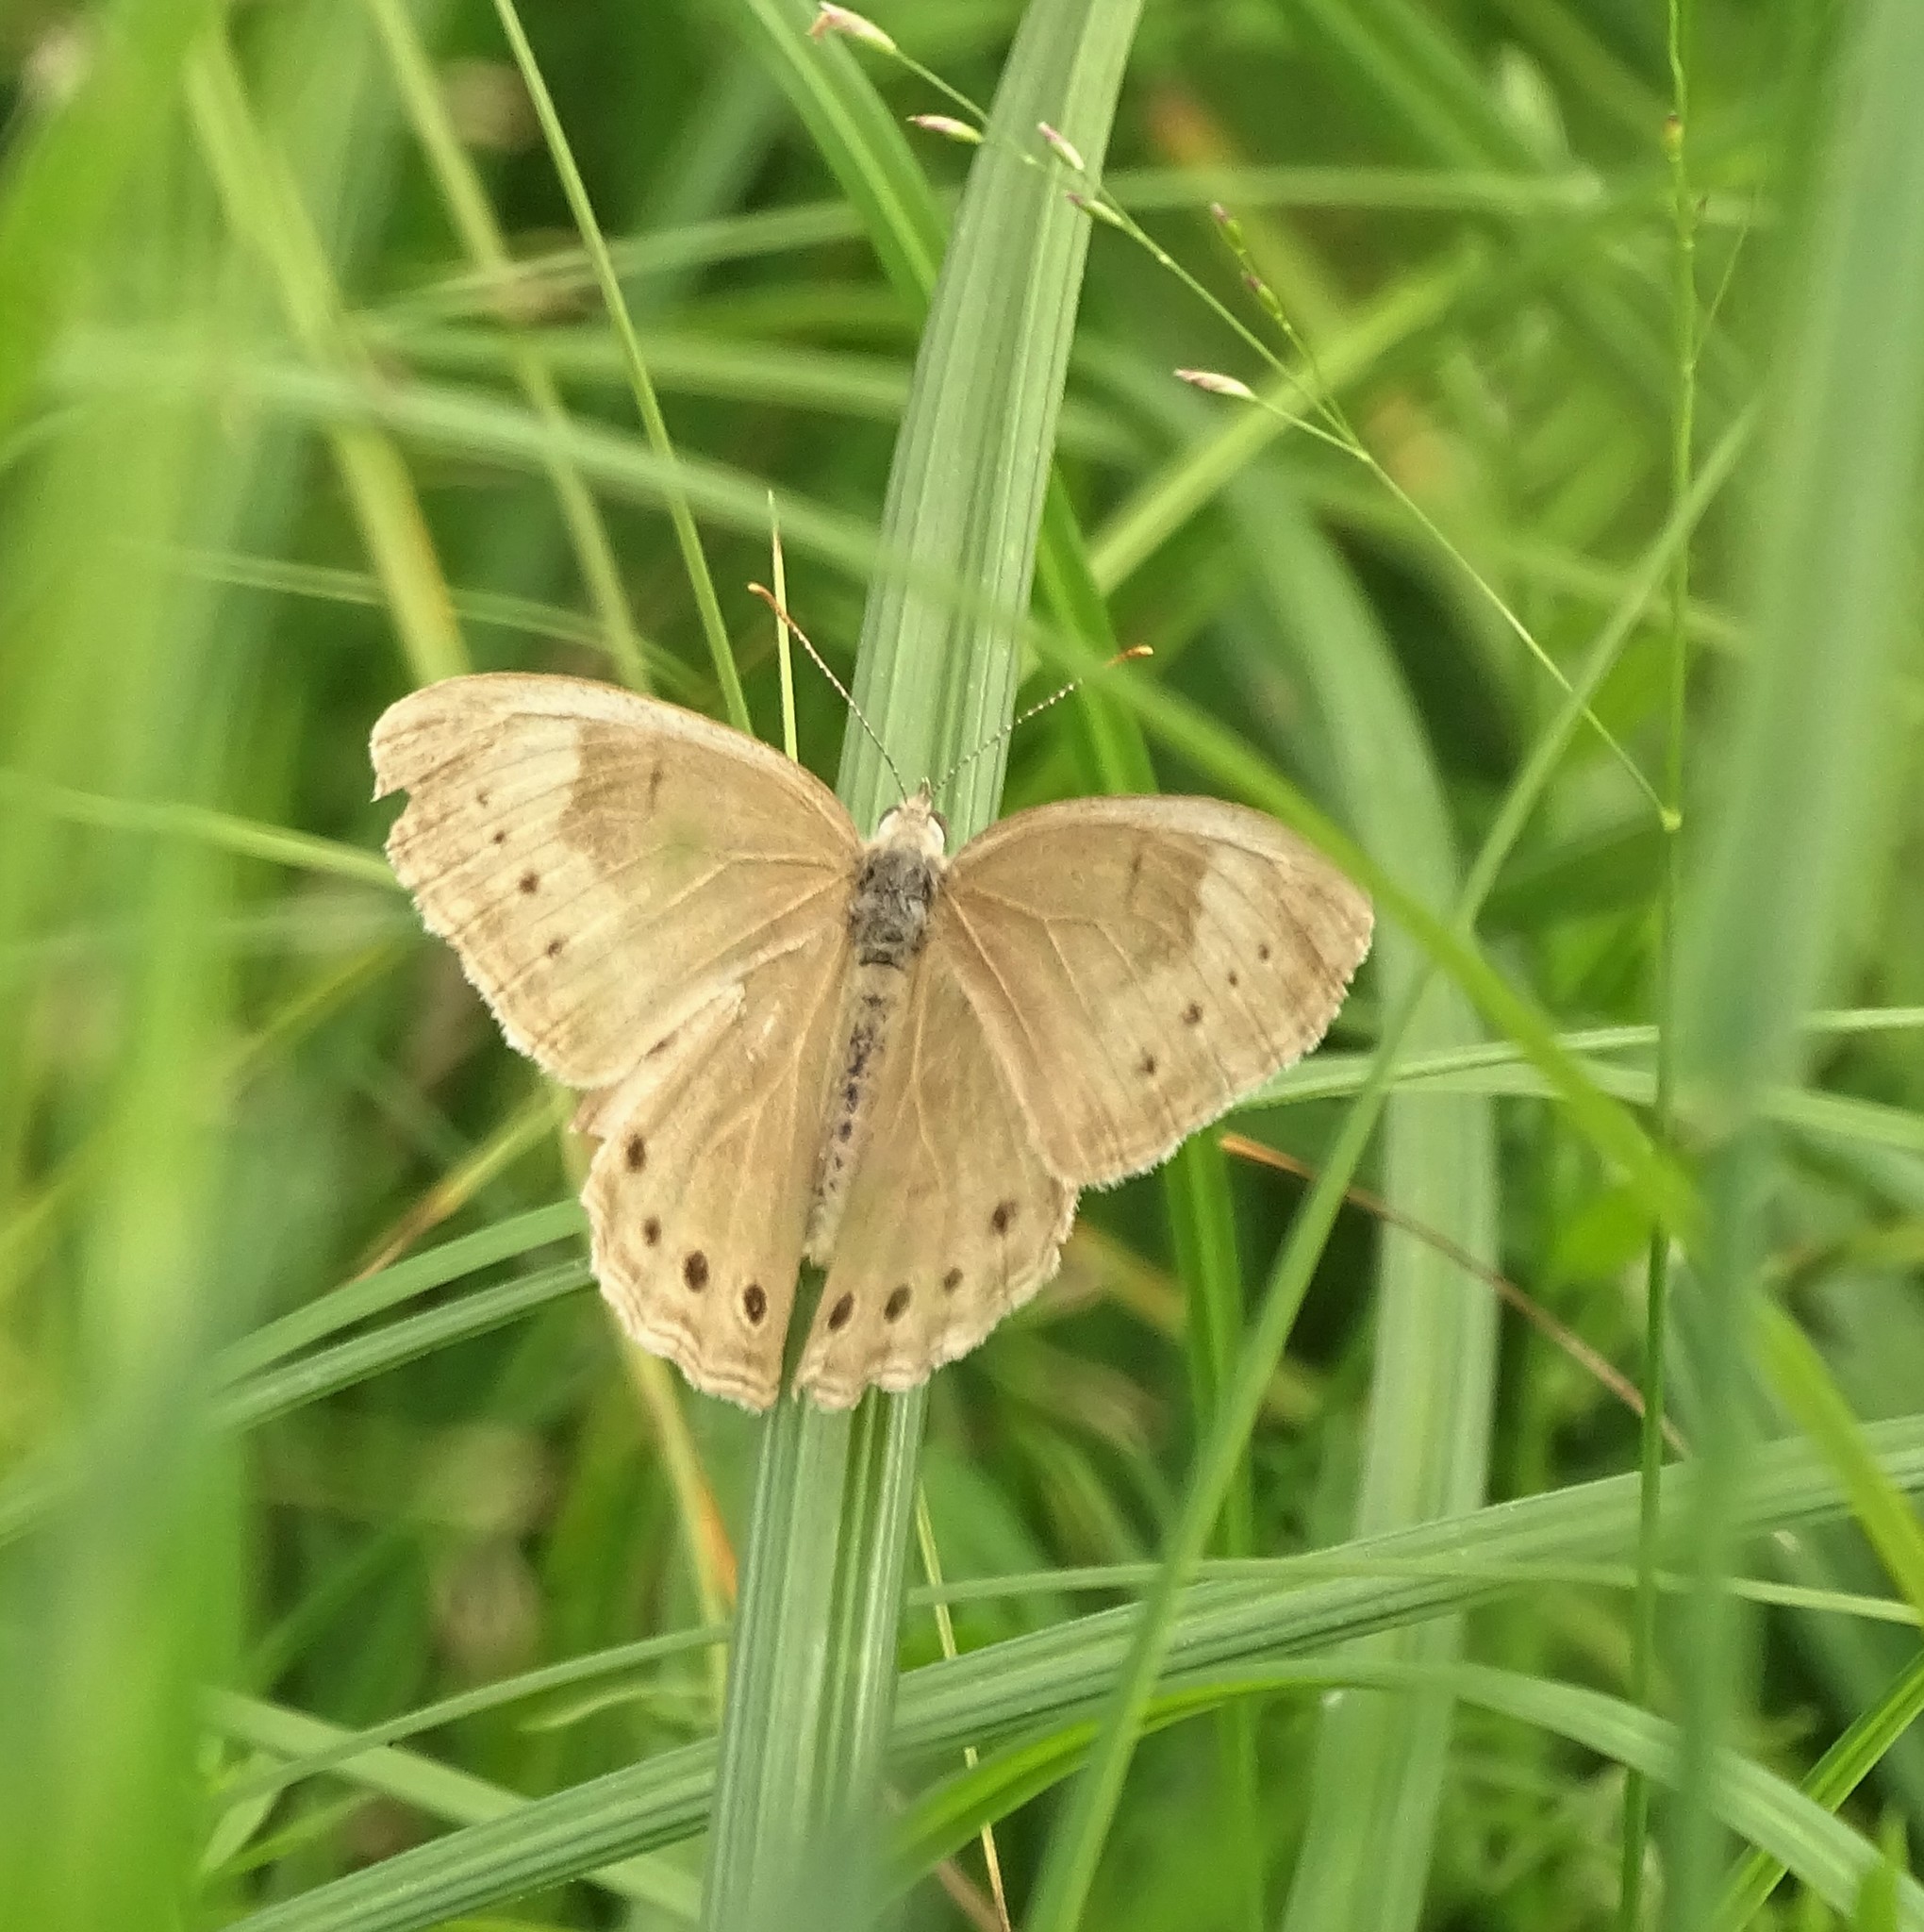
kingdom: Animalia
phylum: Arthropoda
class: Insecta
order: Lepidoptera
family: Nymphalidae
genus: Lethe
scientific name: Lethe eurydice
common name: Eyed brown
